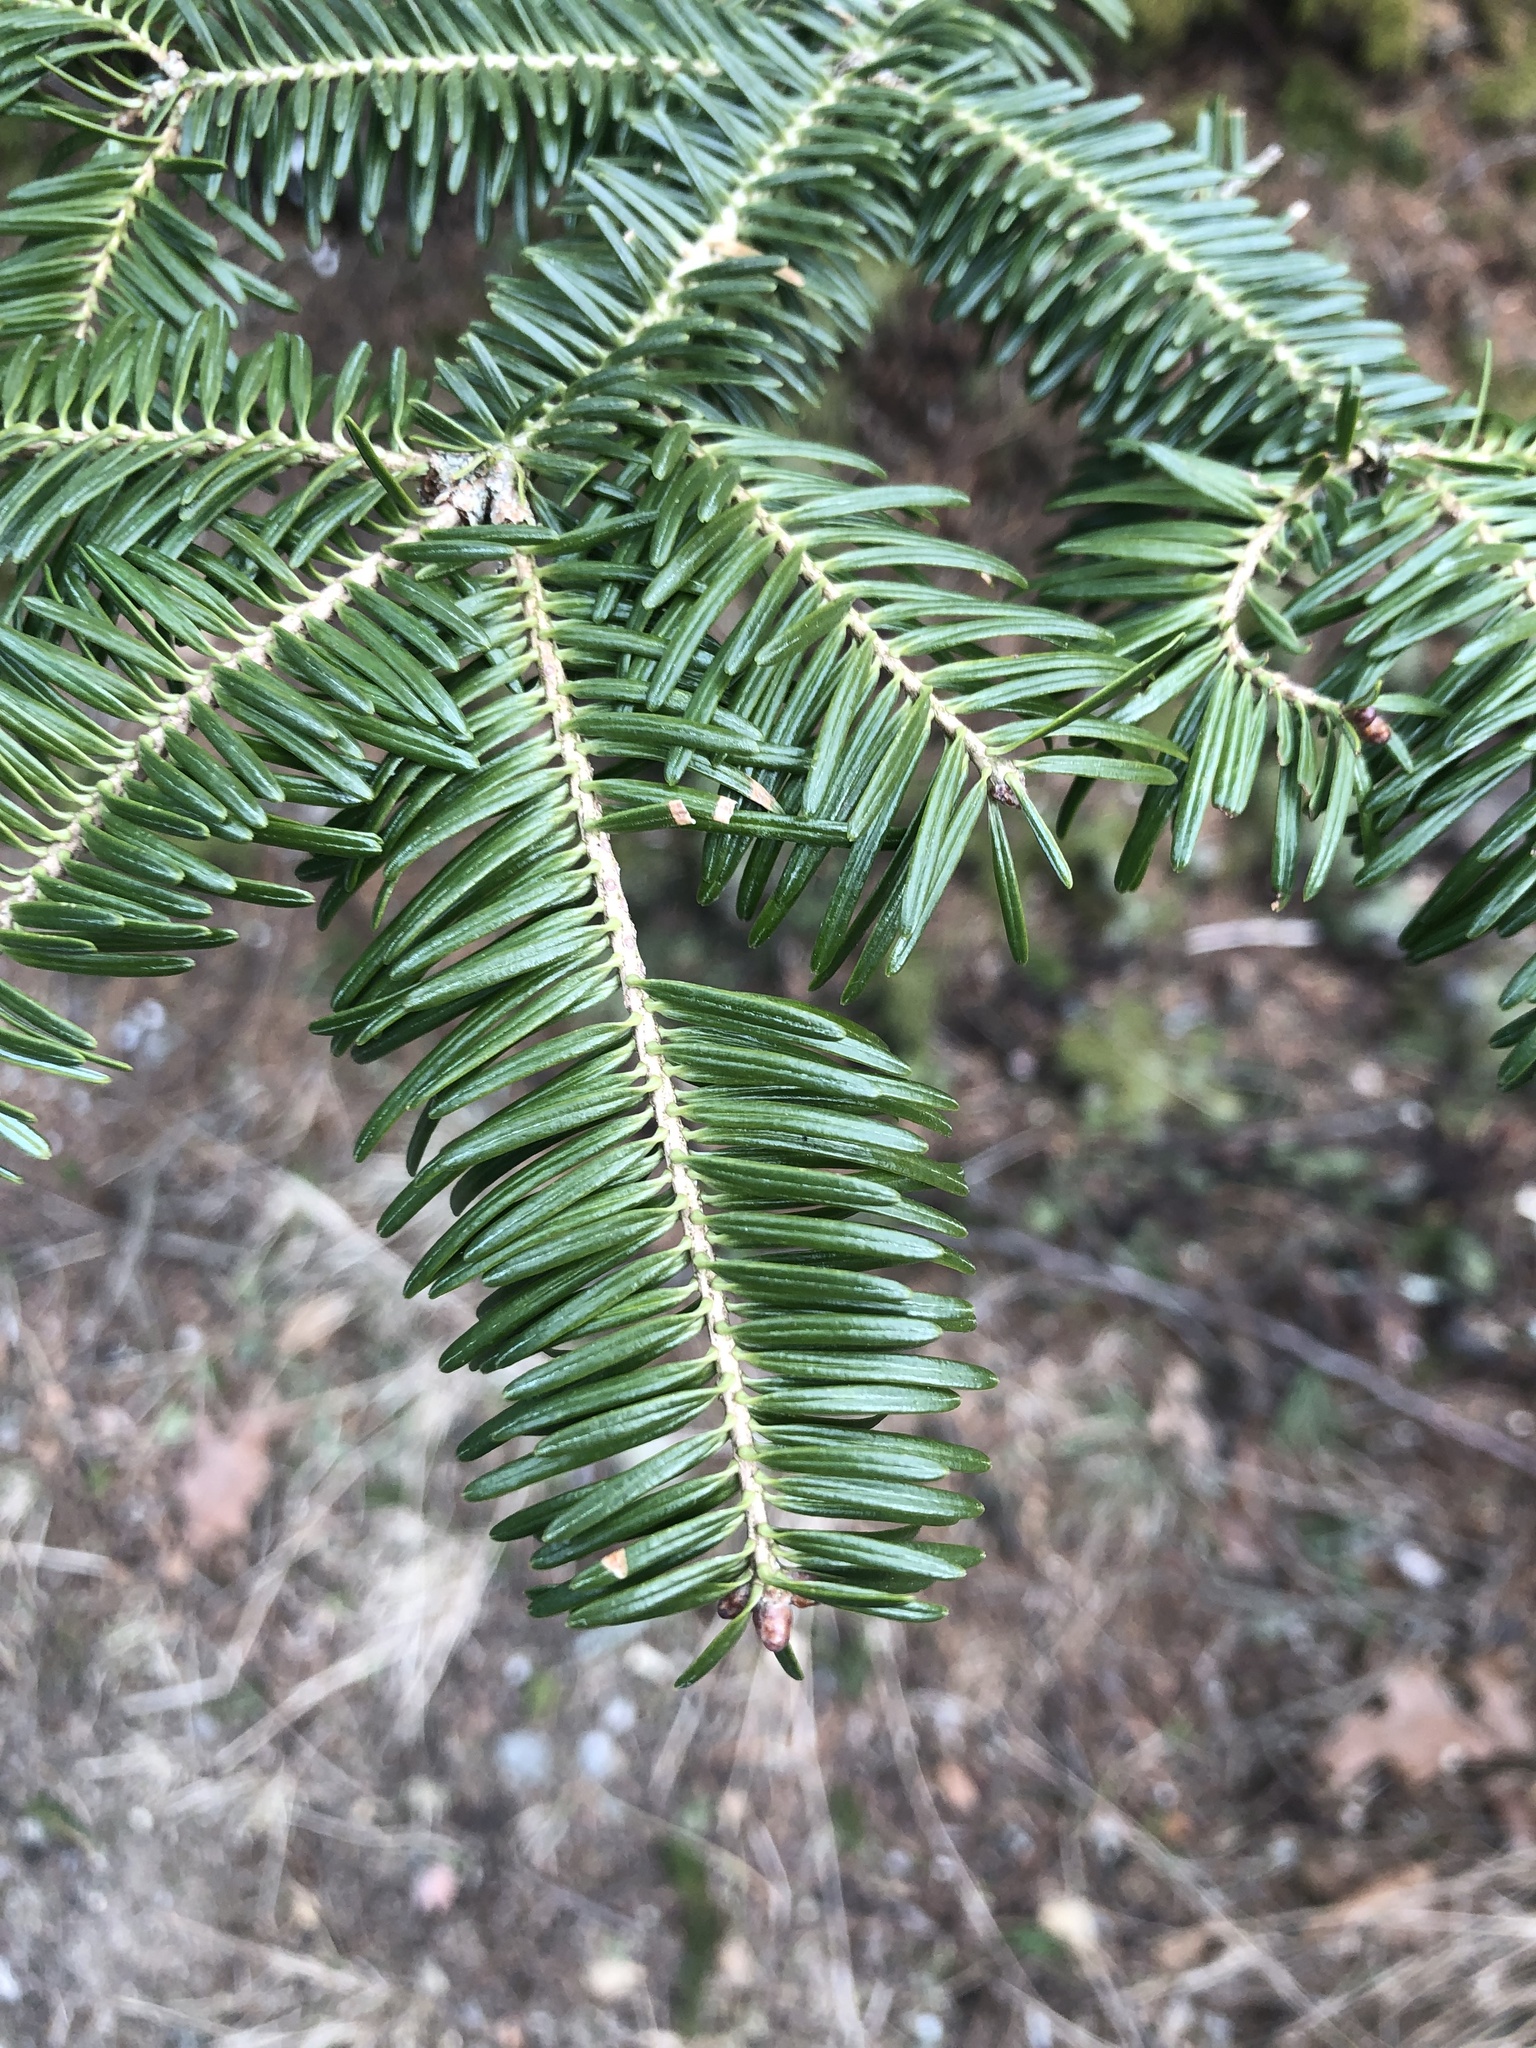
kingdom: Plantae
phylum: Tracheophyta
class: Pinopsida
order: Pinales
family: Pinaceae
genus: Abies
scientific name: Abies balsamea
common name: Balsam fir
